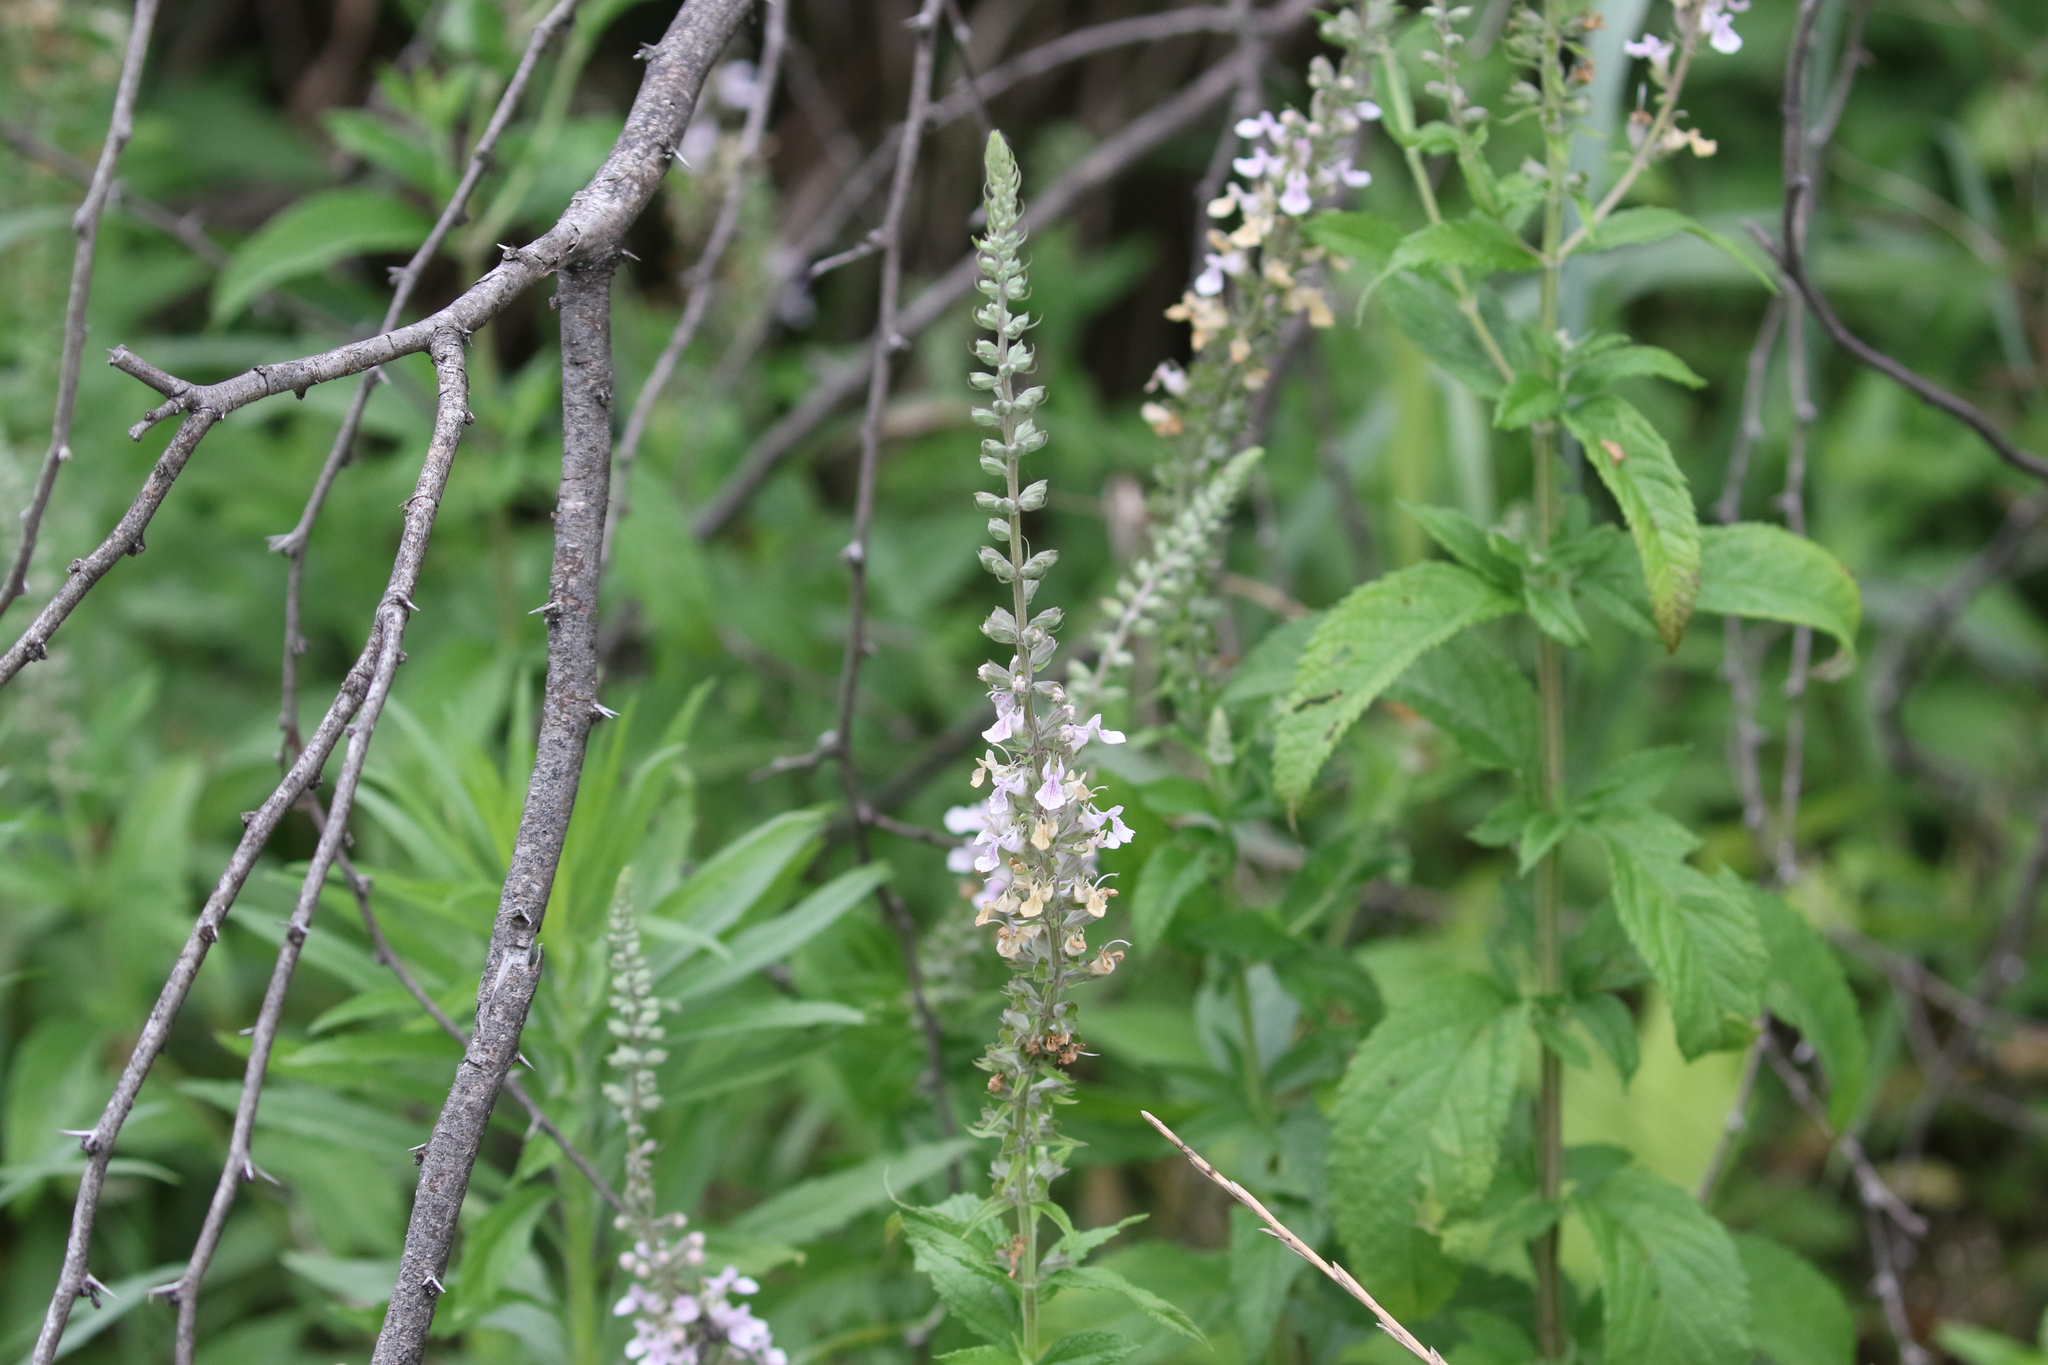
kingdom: Plantae
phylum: Tracheophyta
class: Magnoliopsida
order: Lamiales
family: Lamiaceae
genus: Teucrium
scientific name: Teucrium canadense
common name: American germander
